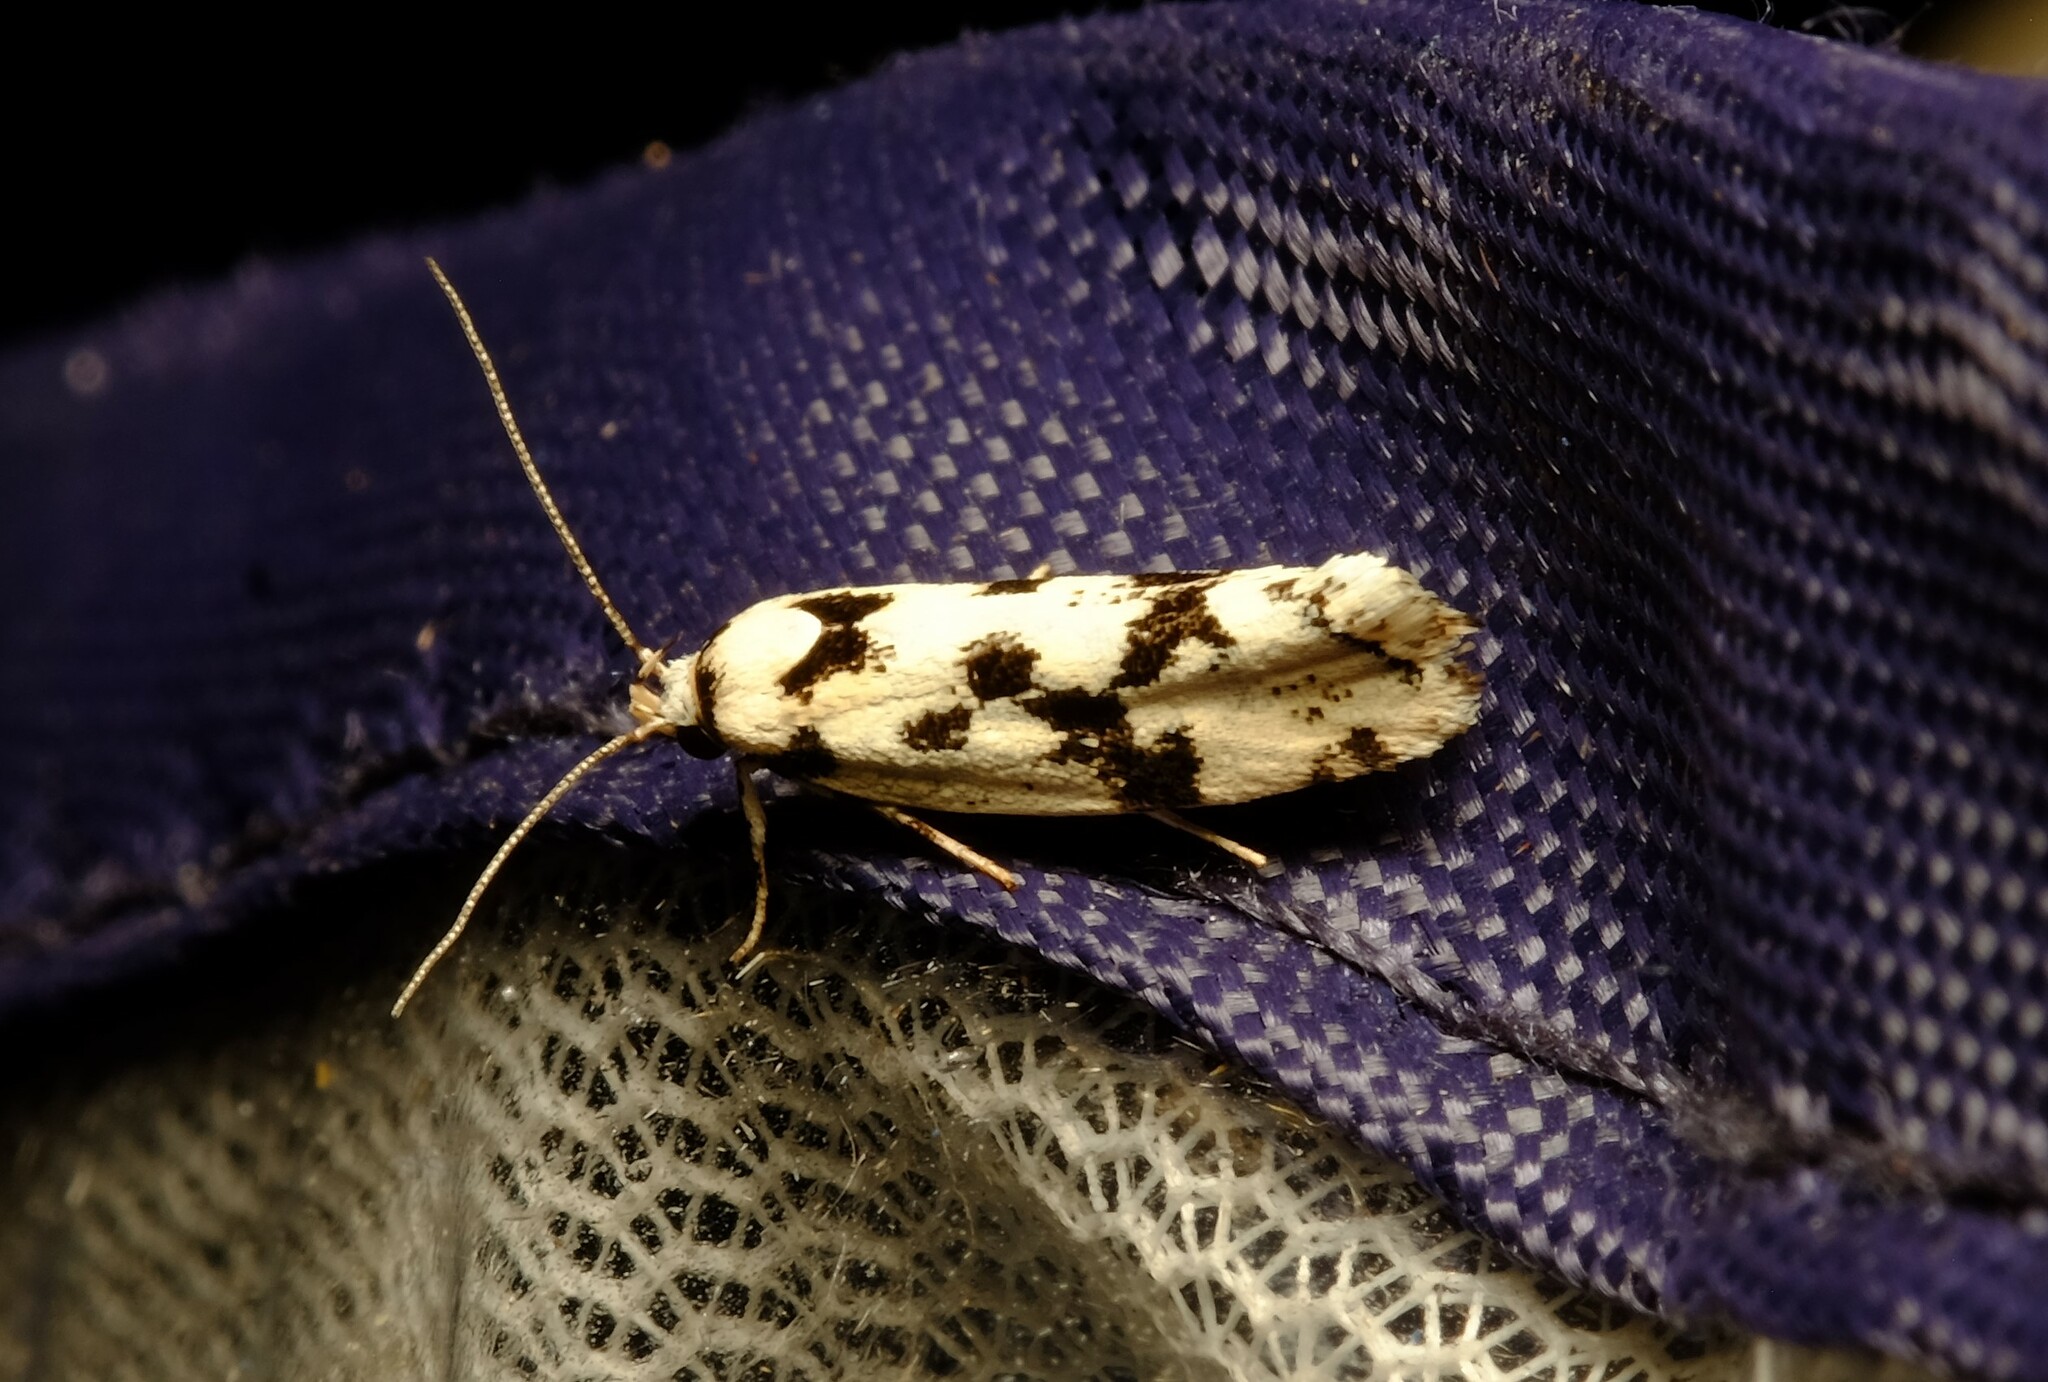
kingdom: Animalia
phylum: Arthropoda
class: Insecta
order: Lepidoptera
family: Xyloryctidae
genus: Lichenaula
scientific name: Lichenaula calligrapha
